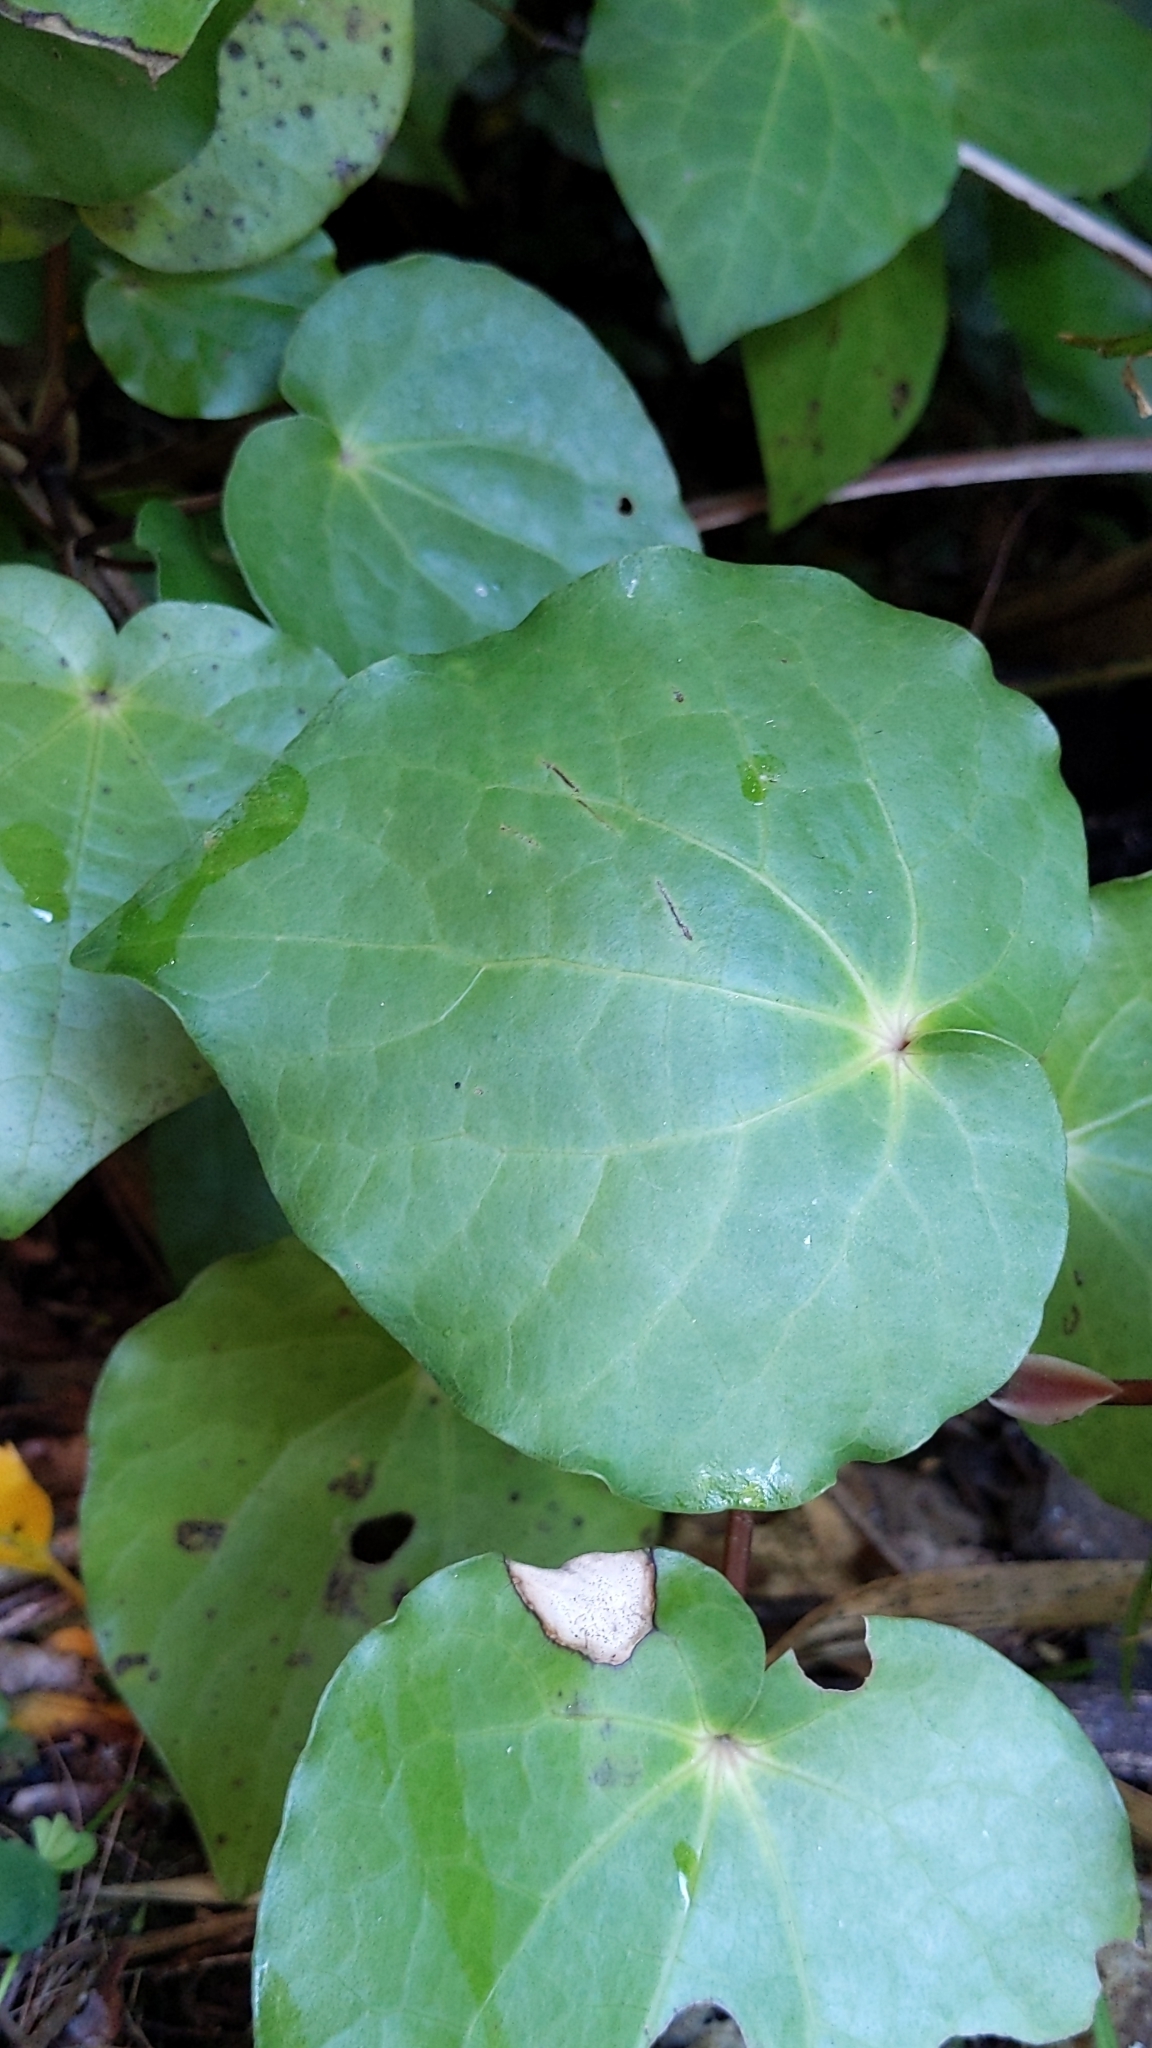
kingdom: Plantae
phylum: Tracheophyta
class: Magnoliopsida
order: Piperales
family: Piperaceae
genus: Macropiper
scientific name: Macropiper excelsum
